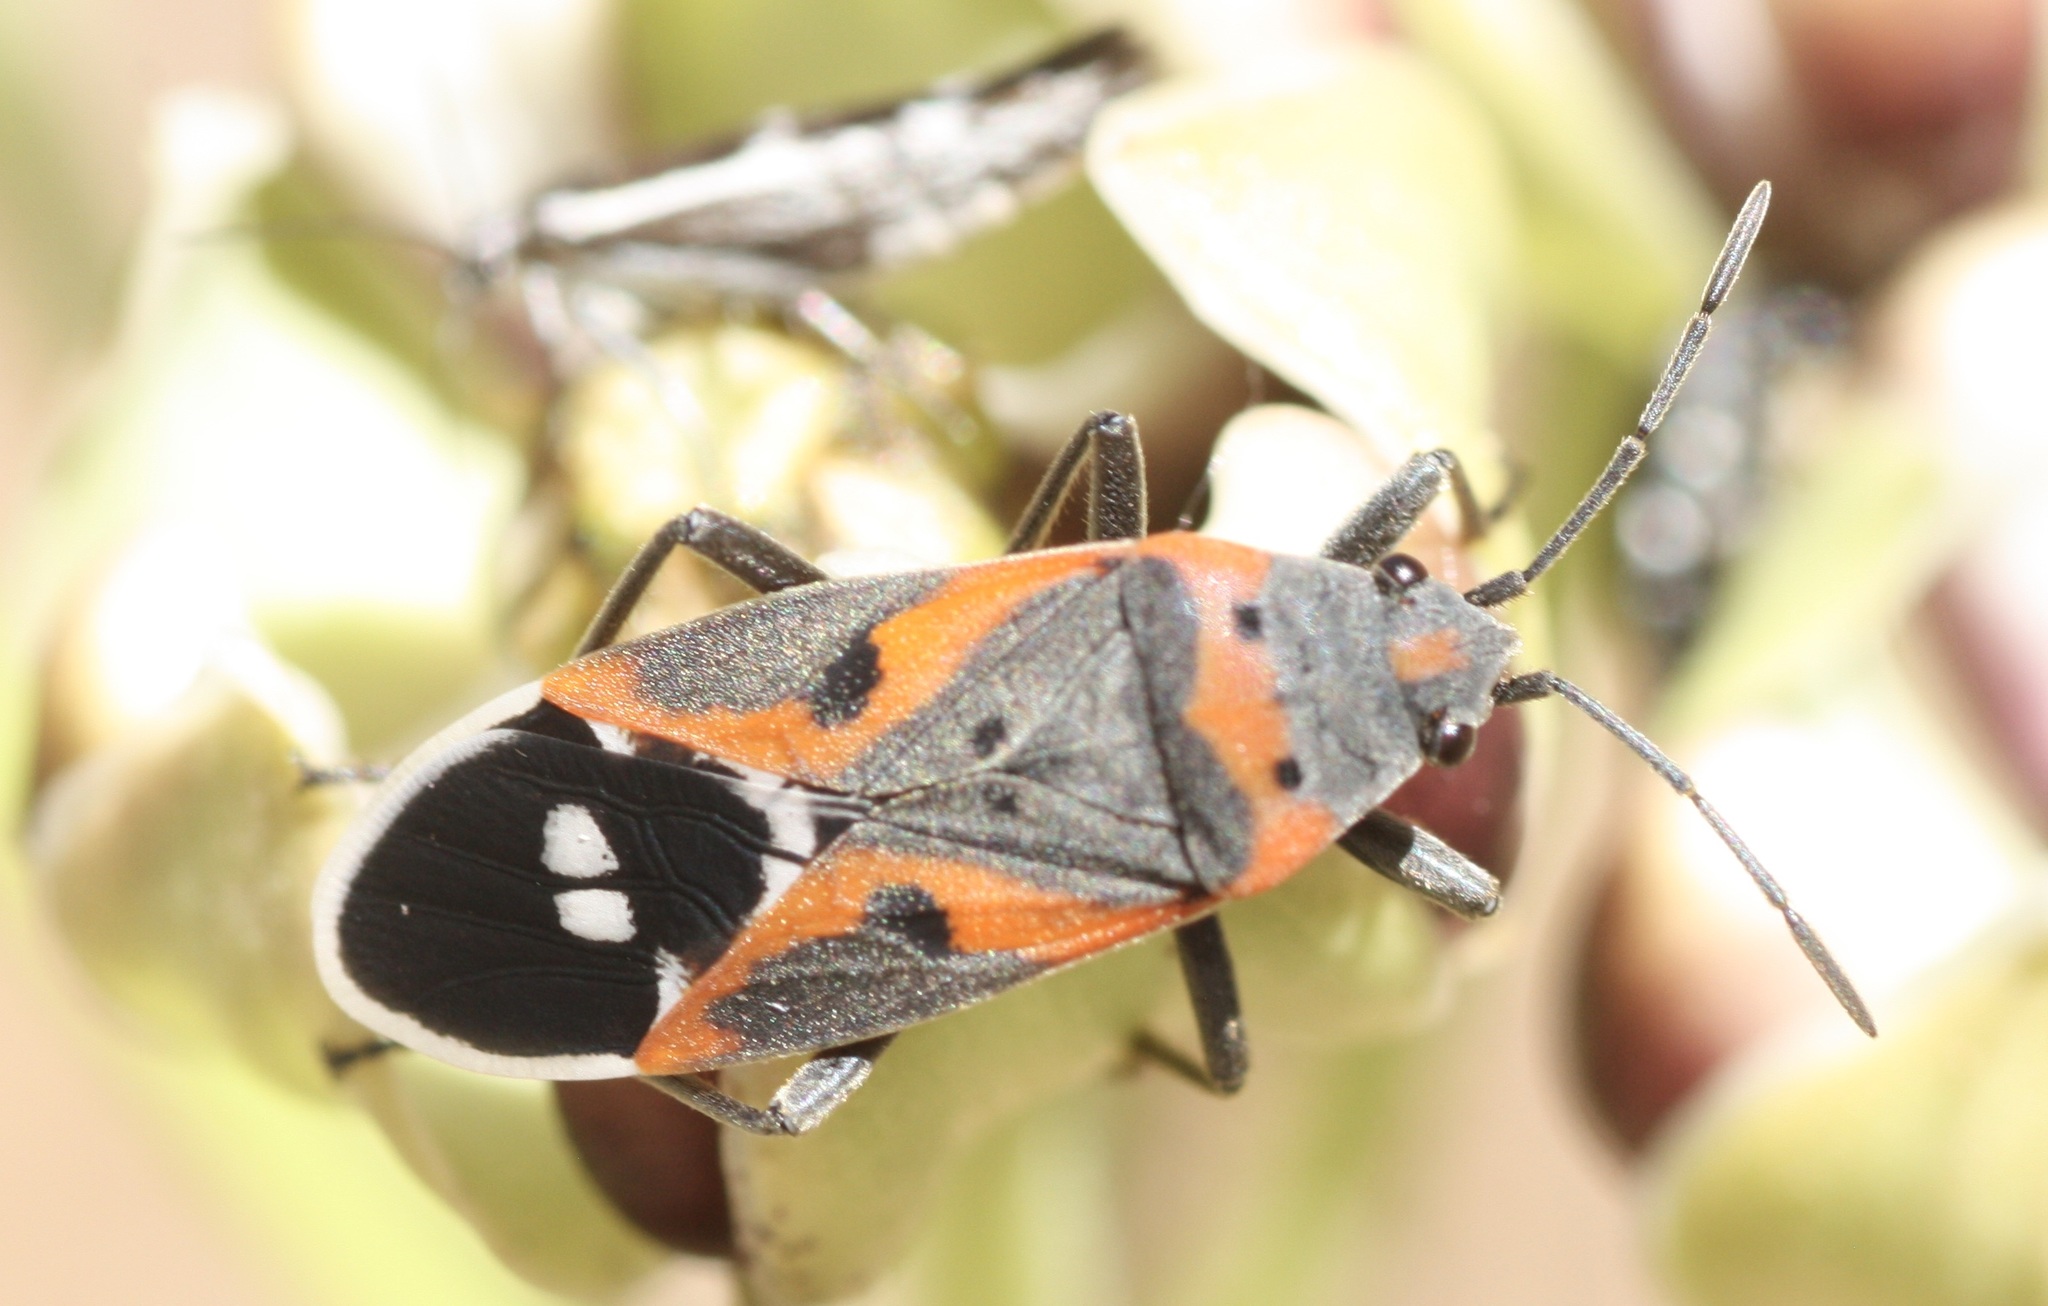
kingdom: Animalia
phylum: Arthropoda
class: Insecta
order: Hemiptera
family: Lygaeidae
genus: Lygaeus
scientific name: Lygaeus kalmii
